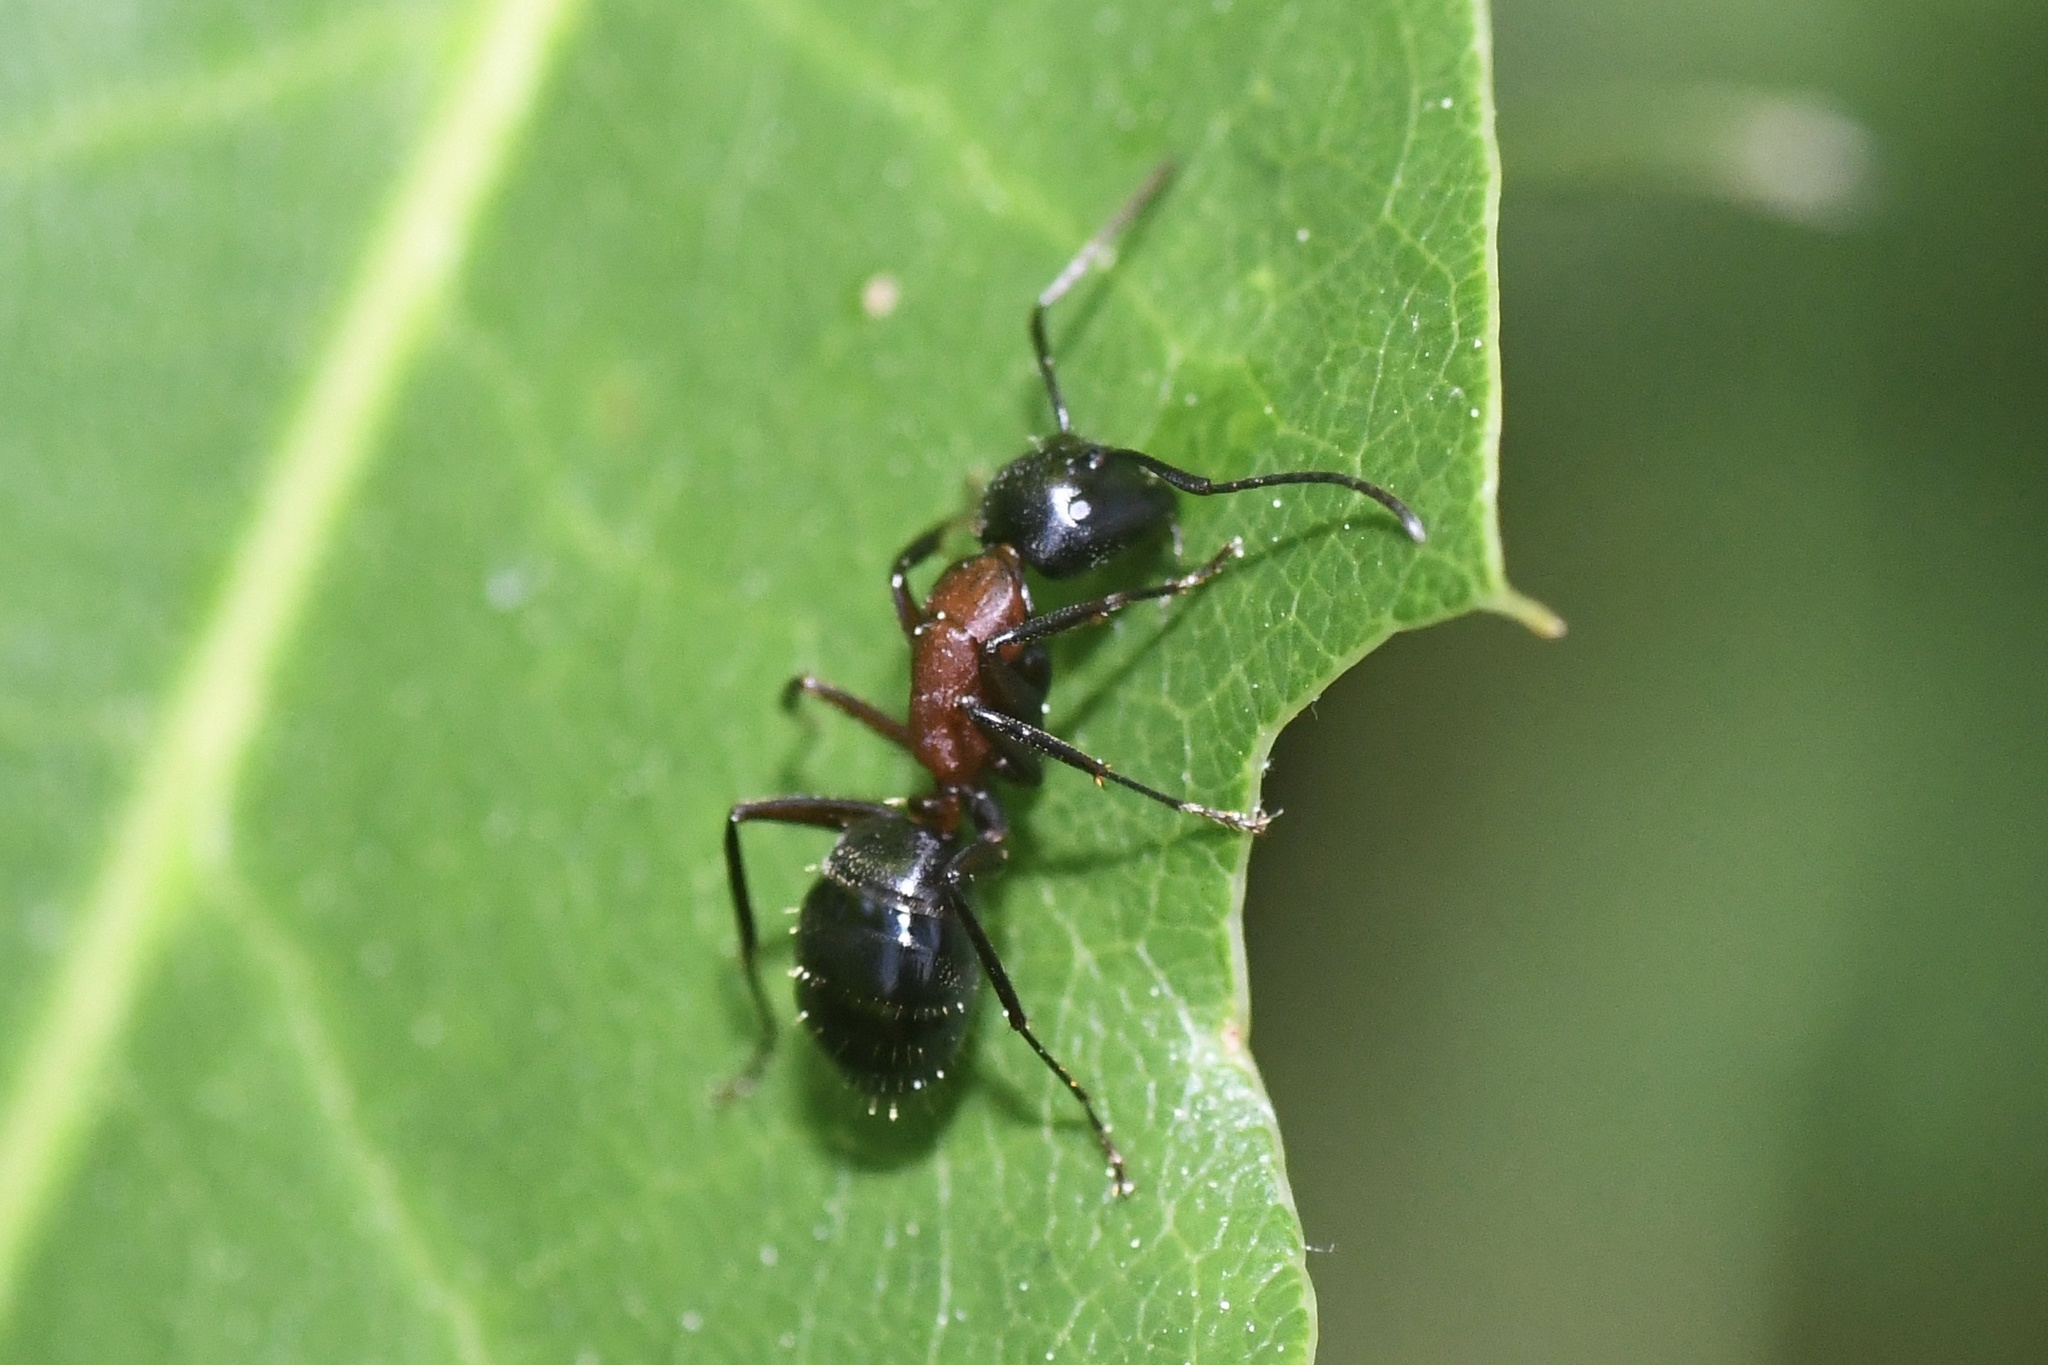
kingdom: Animalia
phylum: Arthropoda
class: Insecta
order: Hymenoptera
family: Formicidae
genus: Camponotus
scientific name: Camponotus novaeboracensis
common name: New york carpenter ant
